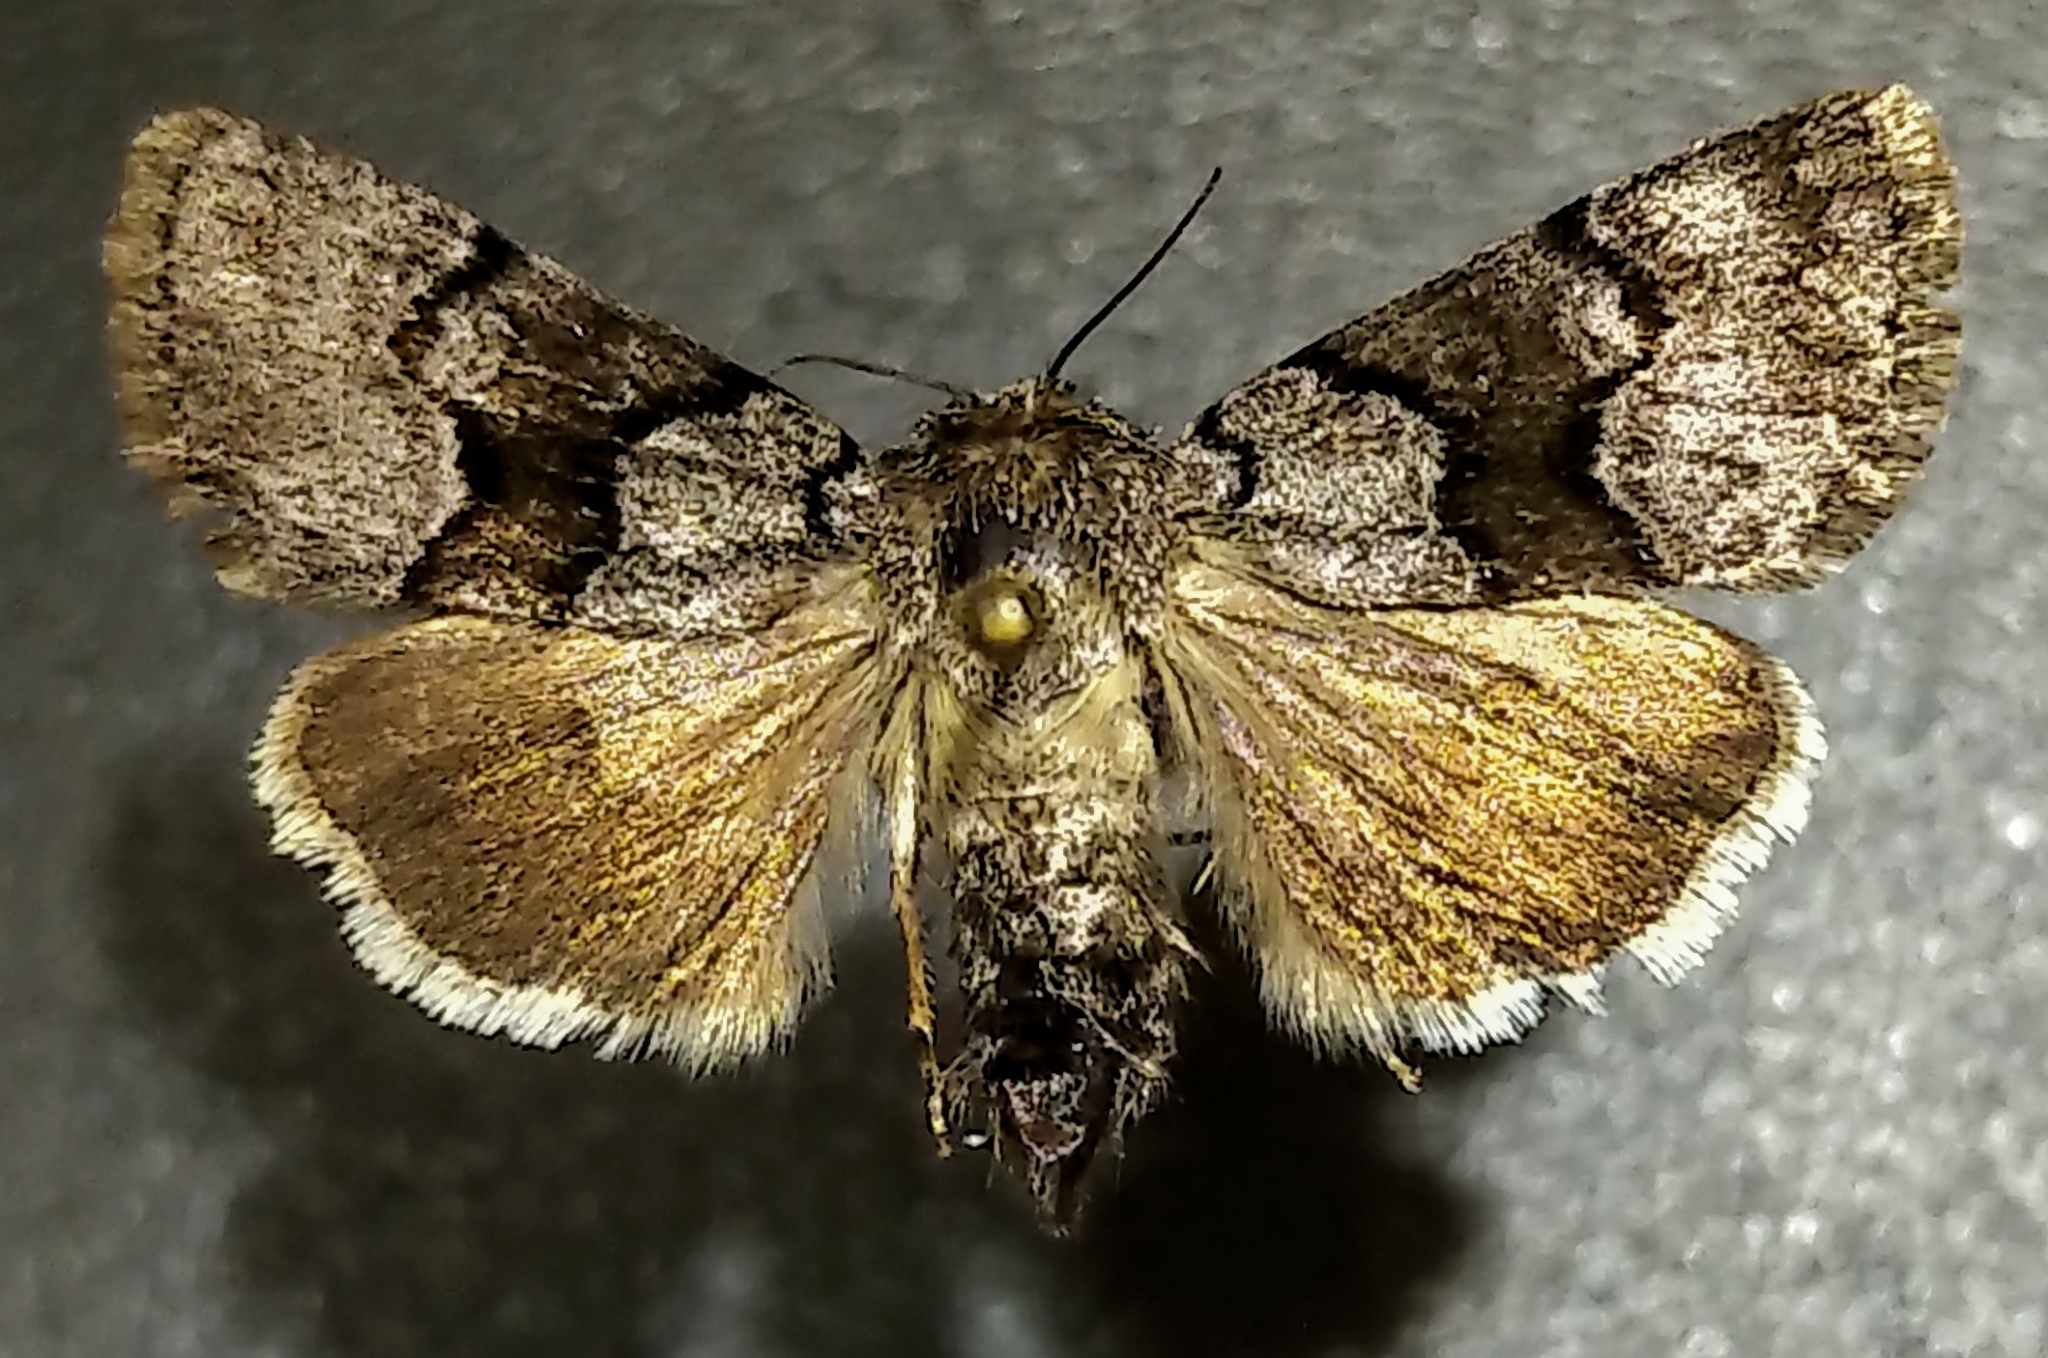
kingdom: Animalia
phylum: Arthropoda
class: Insecta
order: Lepidoptera
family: Noctuidae
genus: Sympistis
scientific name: Sympistis funebris
